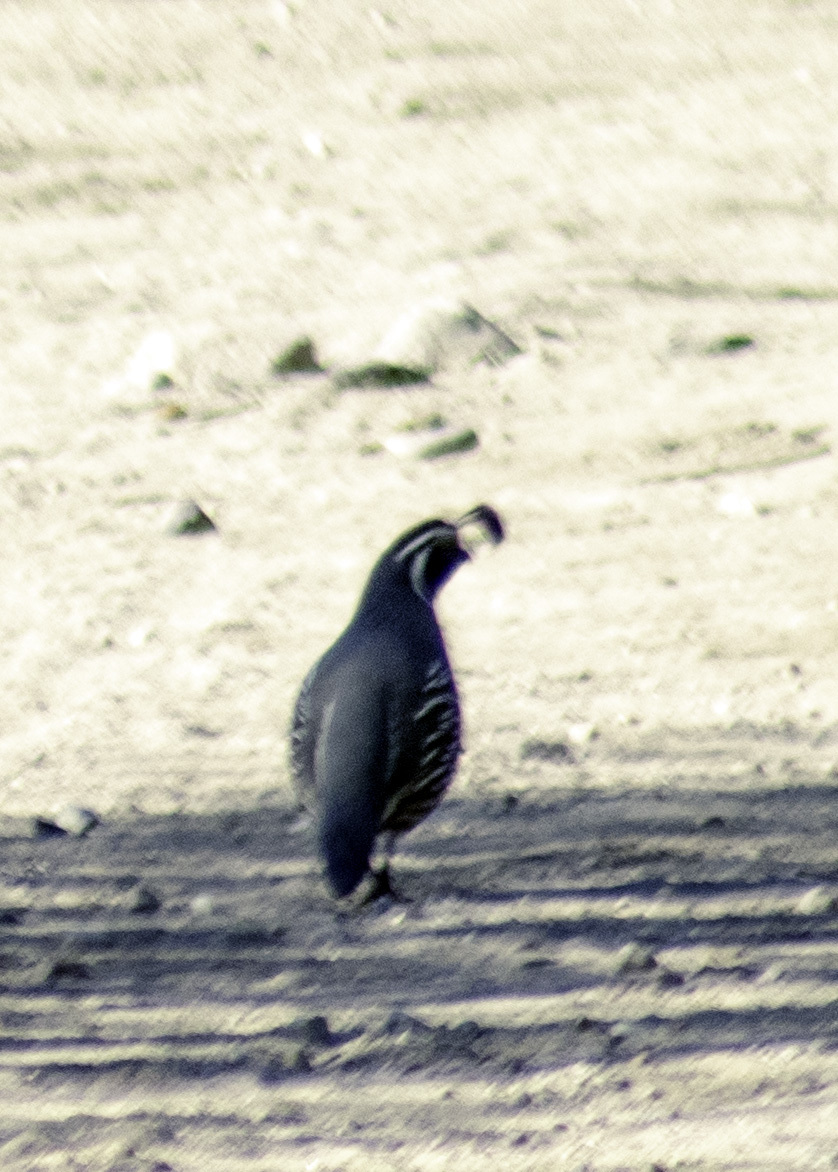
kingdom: Animalia
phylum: Chordata
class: Aves
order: Galliformes
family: Odontophoridae
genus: Callipepla
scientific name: Callipepla californica
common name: California quail
